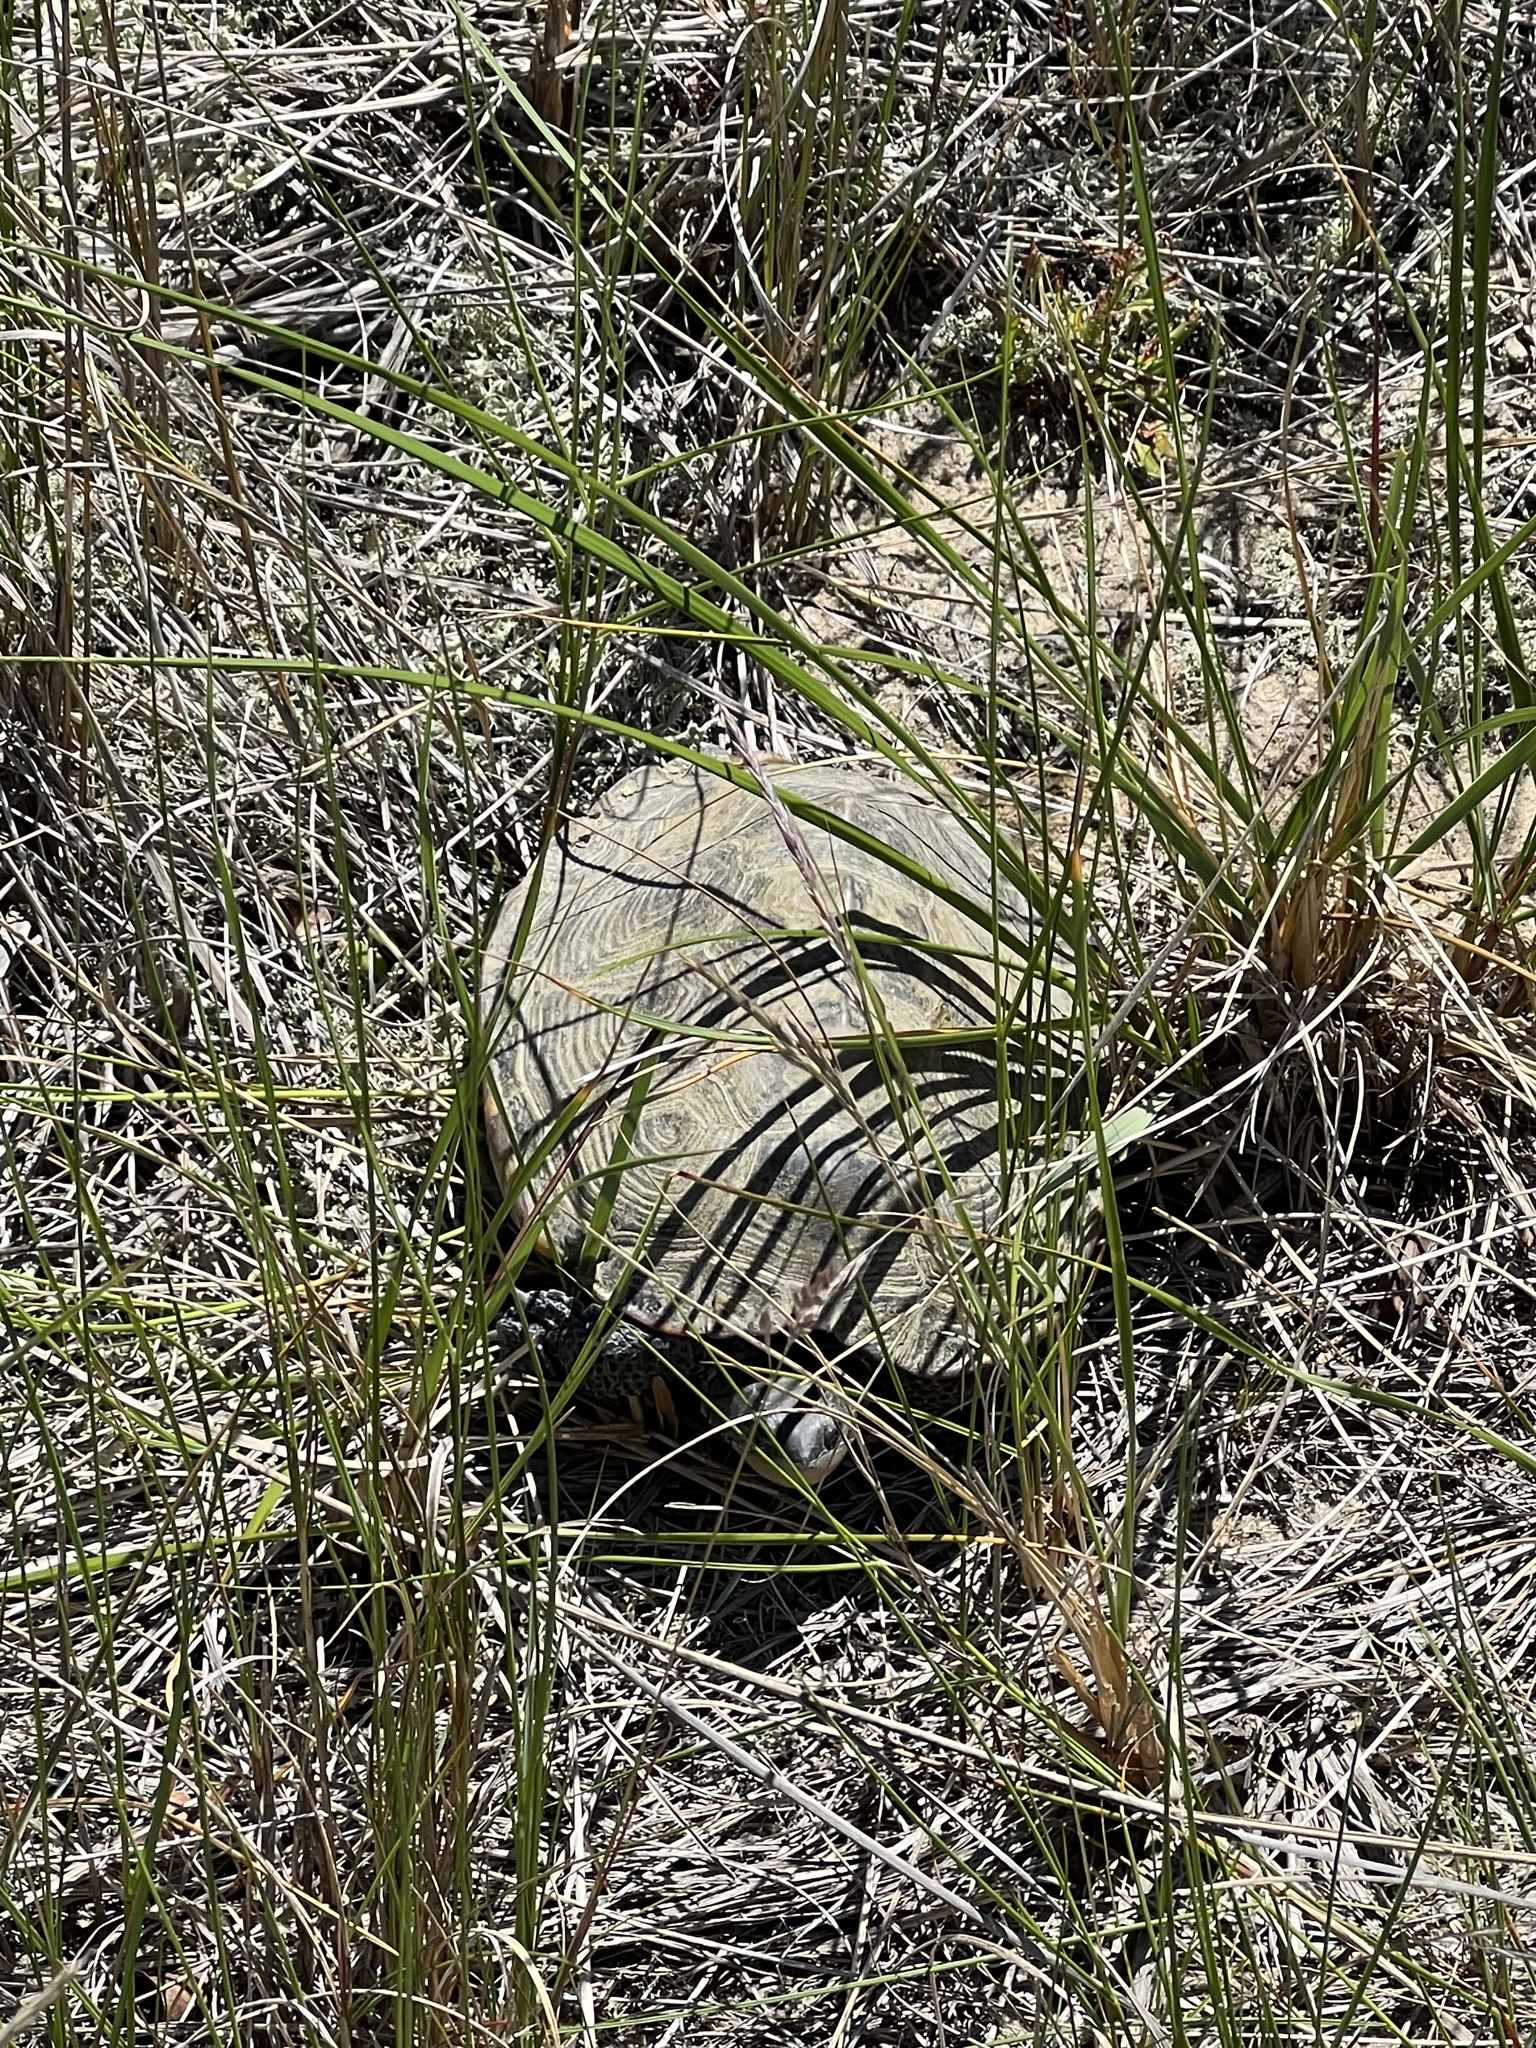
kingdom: Animalia
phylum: Chordata
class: Testudines
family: Emydidae
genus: Malaclemys
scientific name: Malaclemys terrapin
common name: Diamondback terrapin
